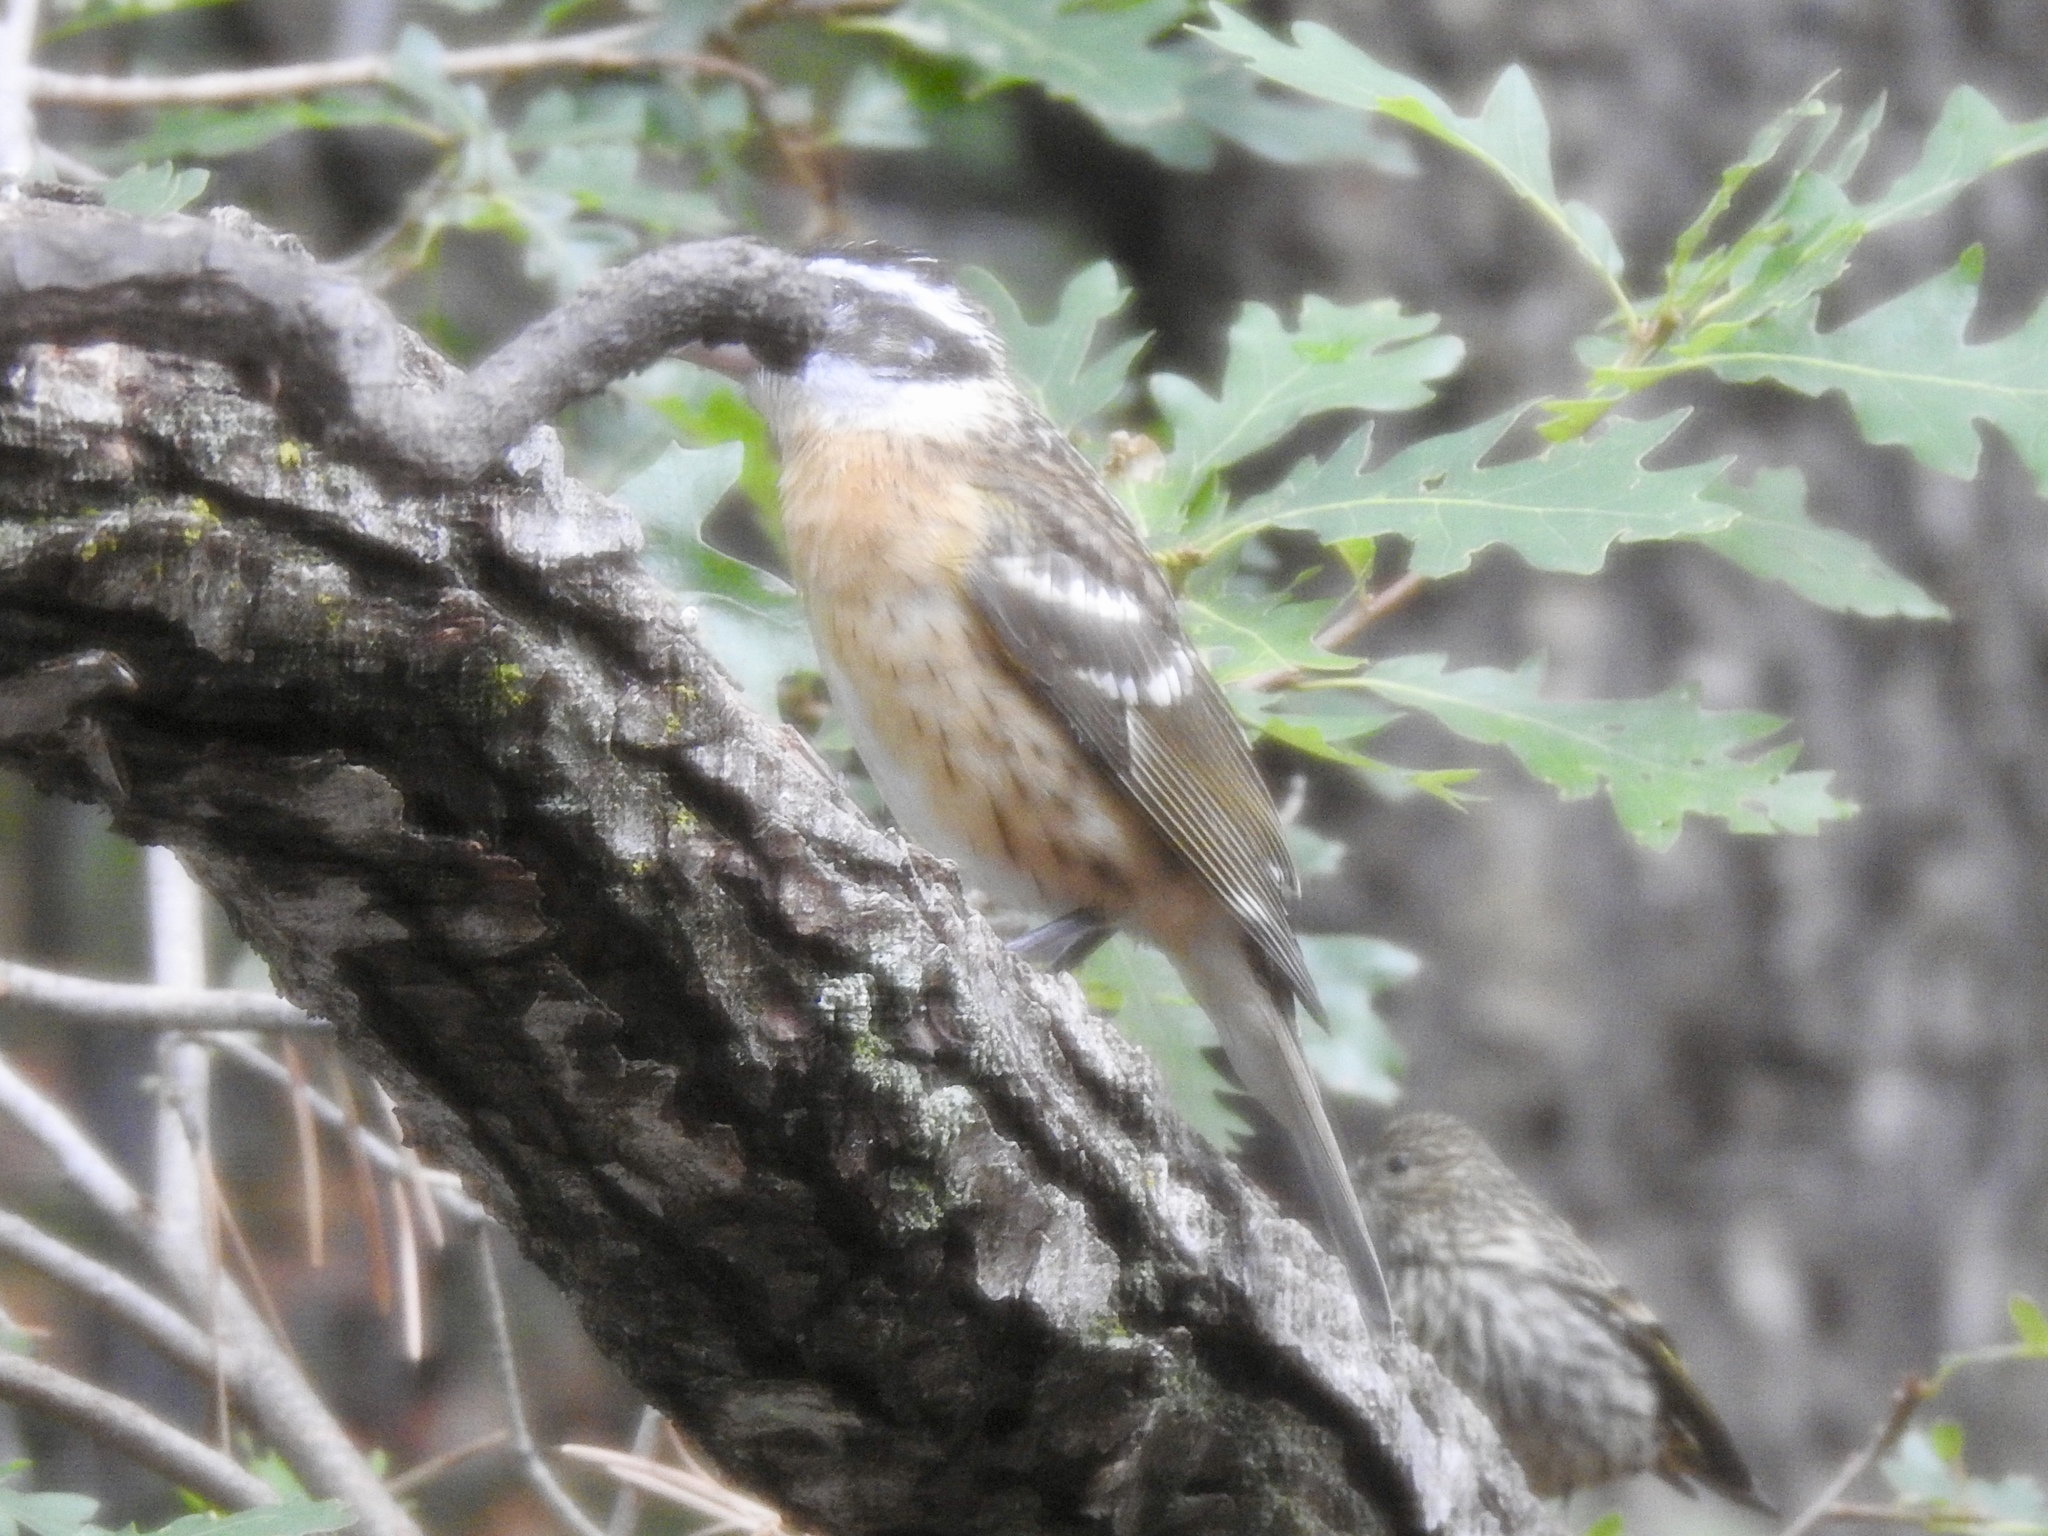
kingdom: Animalia
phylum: Chordata
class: Aves
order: Passeriformes
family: Cardinalidae
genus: Pheucticus
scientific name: Pheucticus melanocephalus
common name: Black-headed grosbeak
